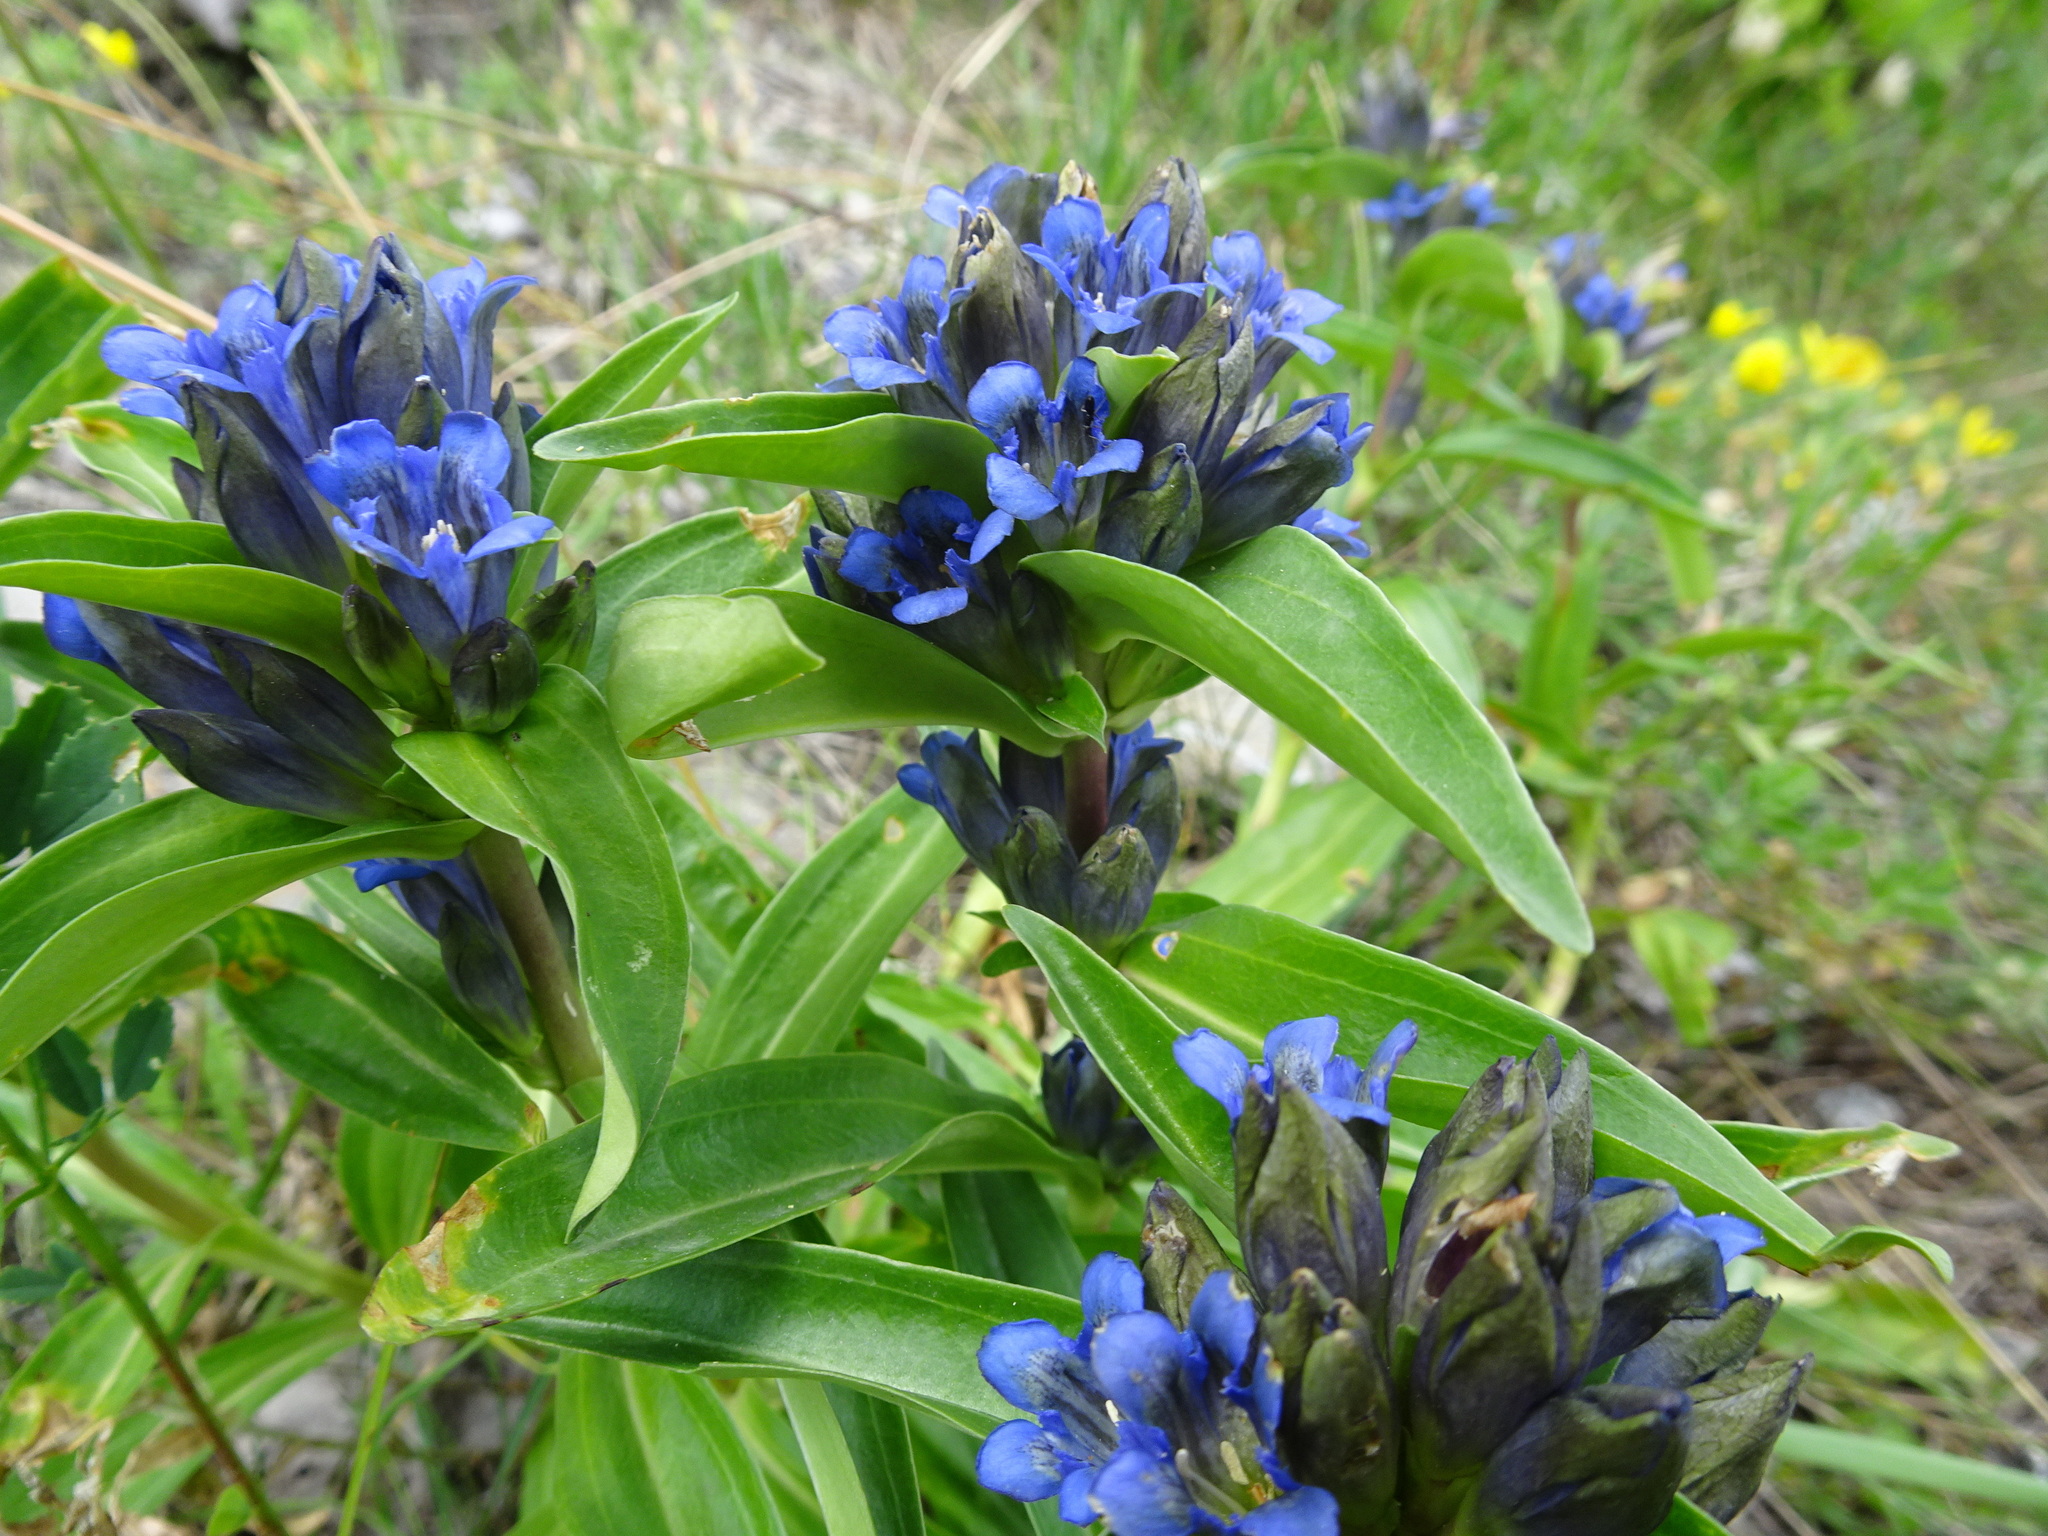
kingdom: Plantae
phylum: Tracheophyta
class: Magnoliopsida
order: Gentianales
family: Gentianaceae
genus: Gentiana
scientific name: Gentiana cruciata
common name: Cross gentian
